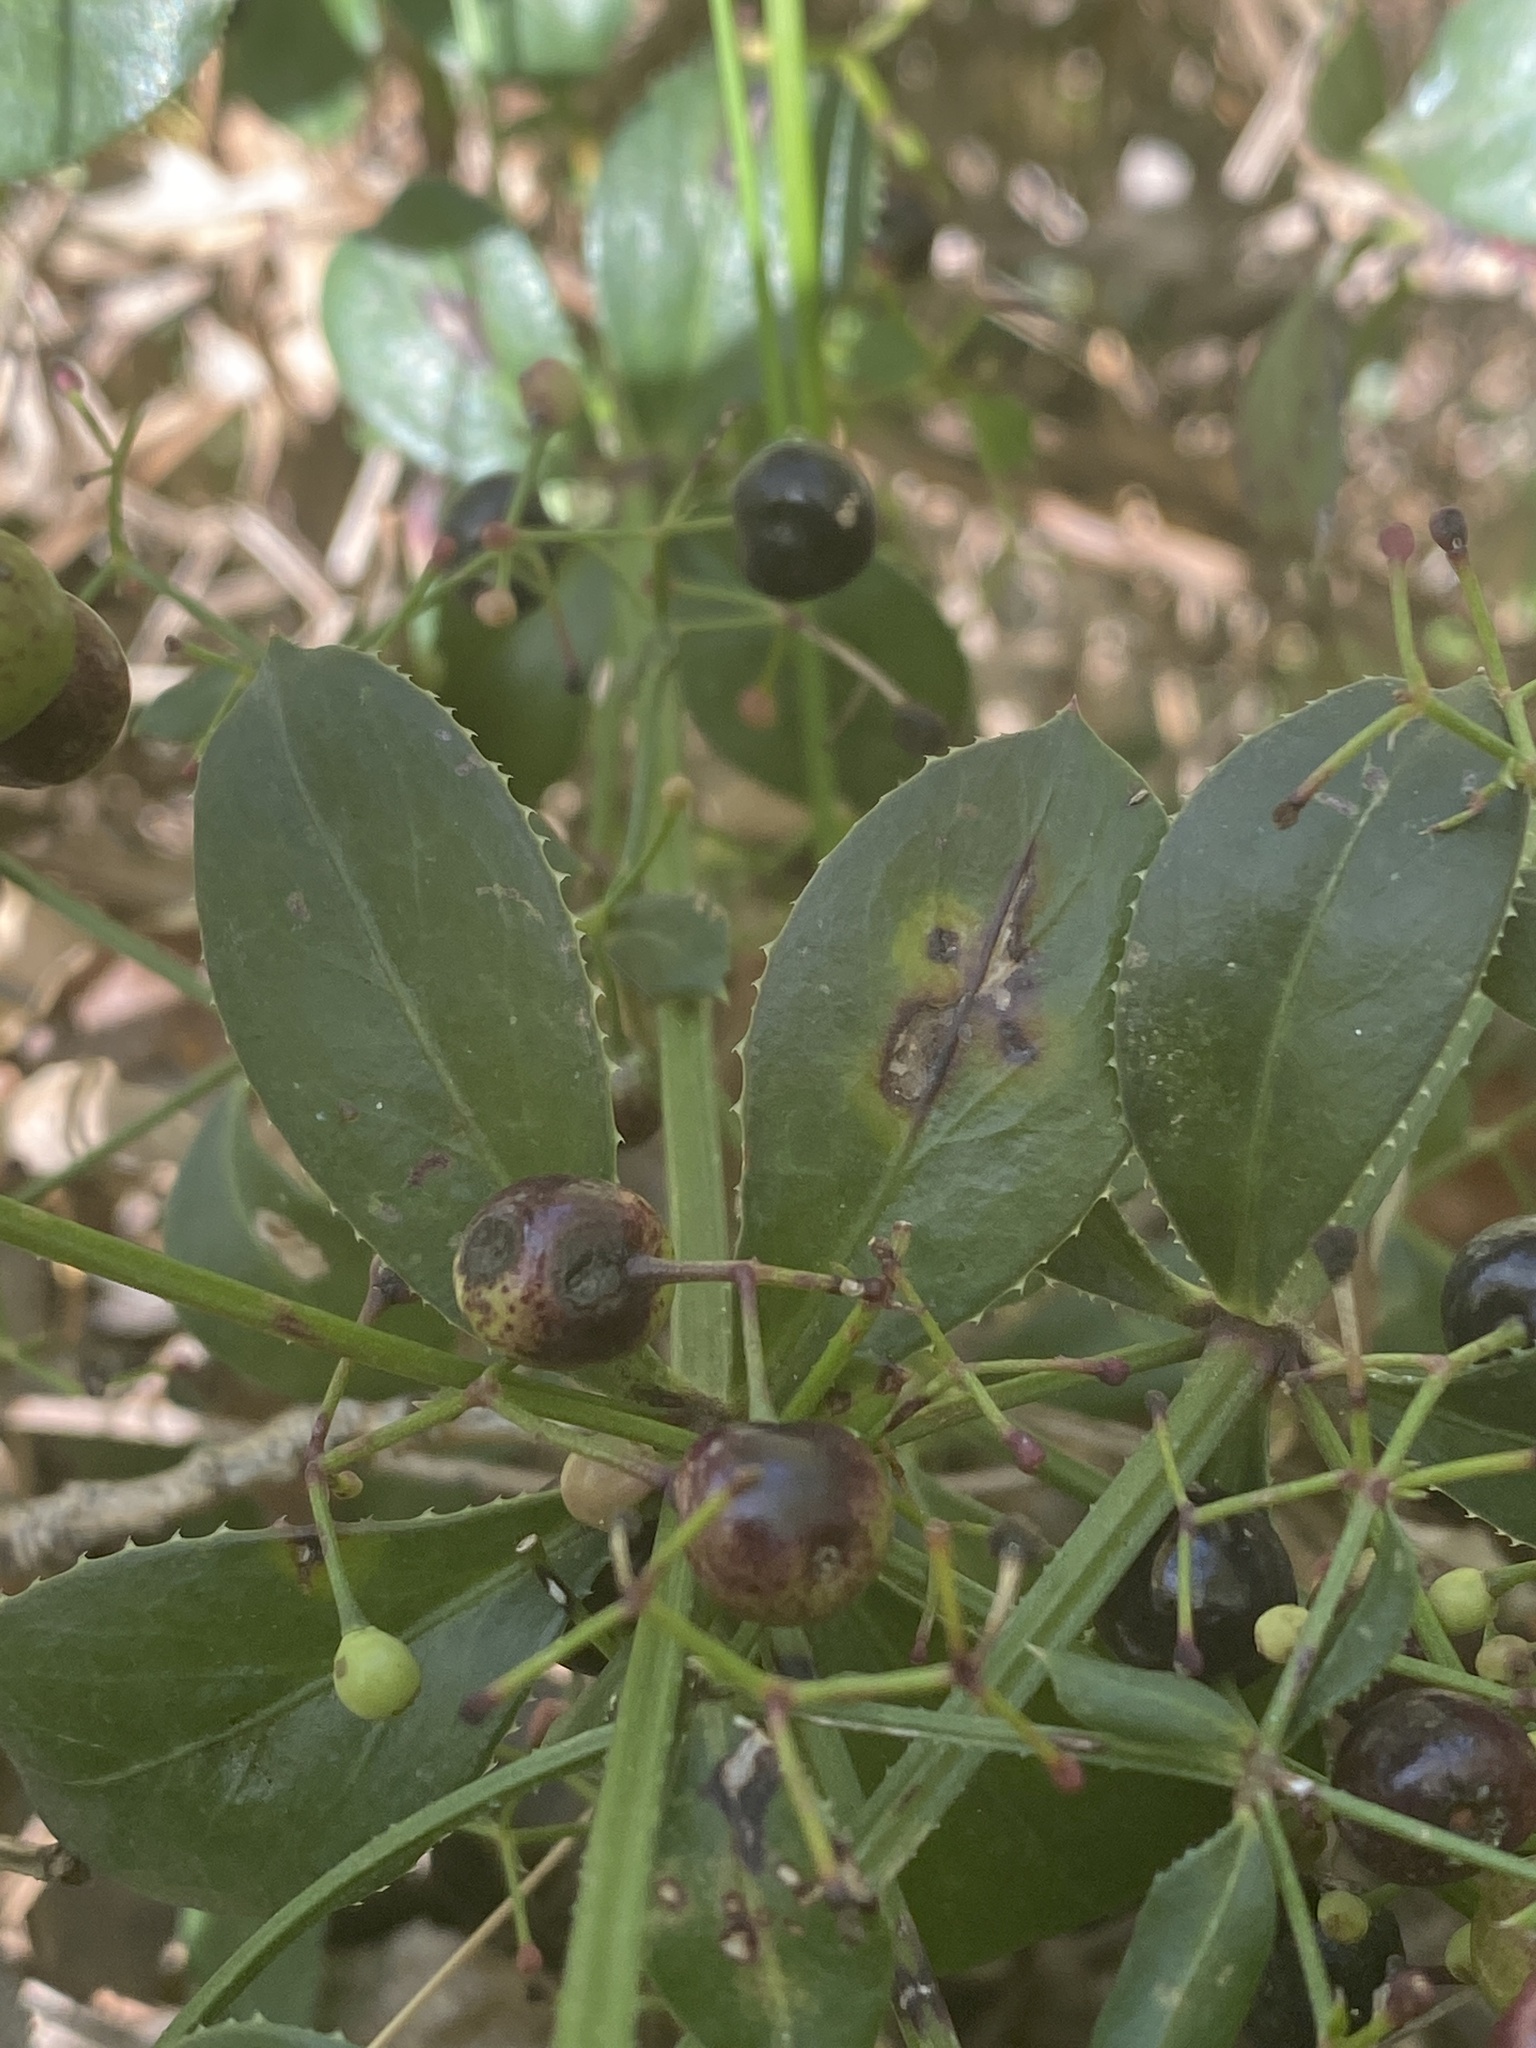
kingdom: Plantae
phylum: Tracheophyta
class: Magnoliopsida
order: Gentianales
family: Rubiaceae
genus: Rubia
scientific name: Rubia peregrina
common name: Wild madder
